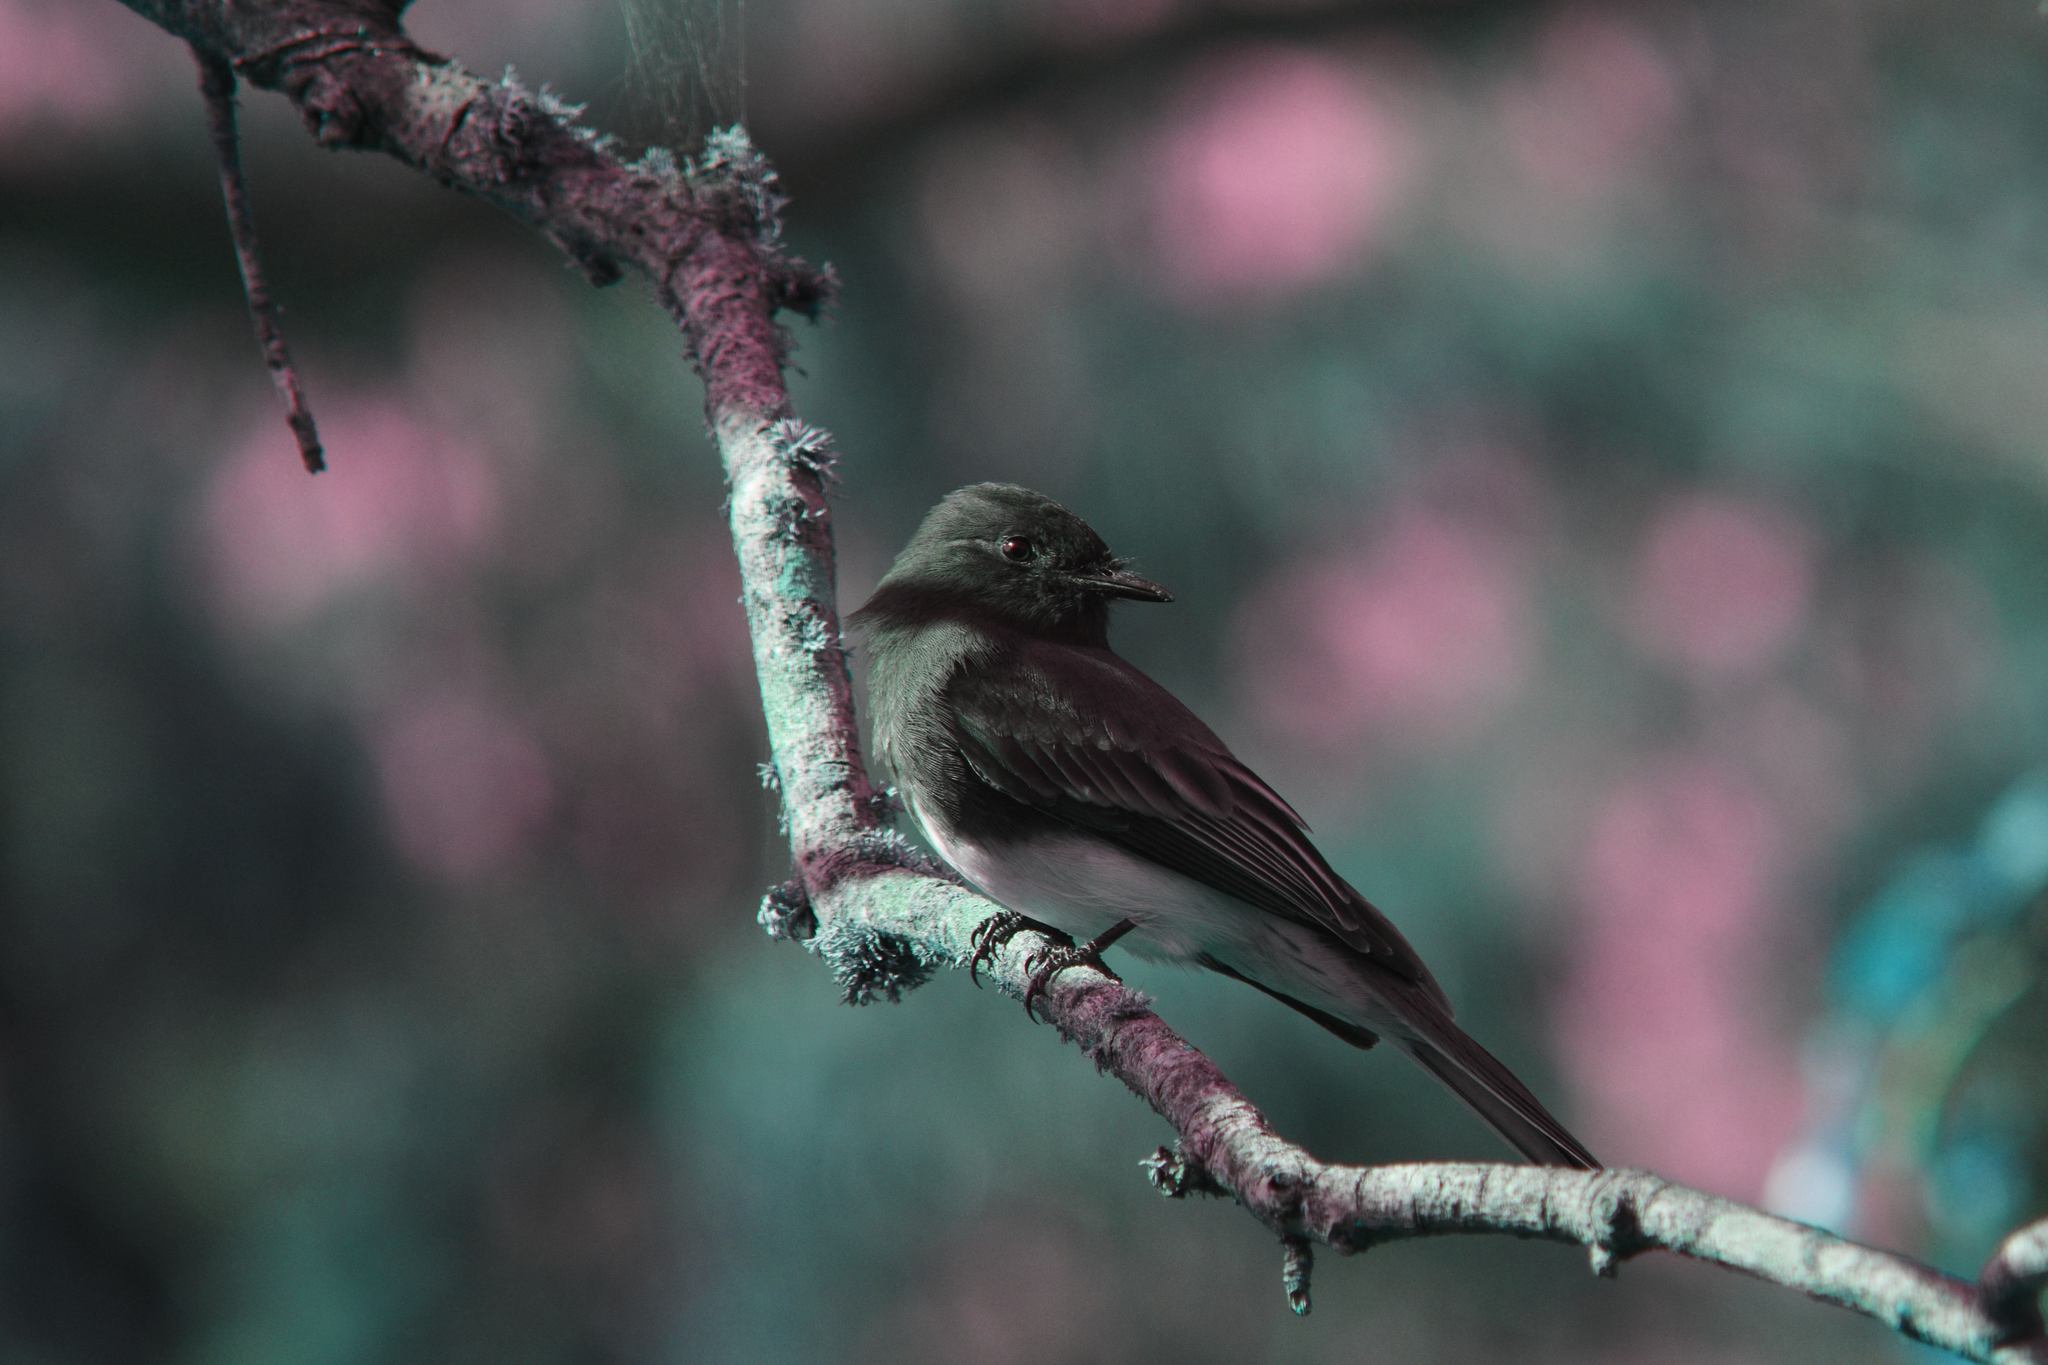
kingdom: Animalia
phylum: Chordata
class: Aves
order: Passeriformes
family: Tyrannidae
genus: Sayornis
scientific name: Sayornis nigricans
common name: Black phoebe
